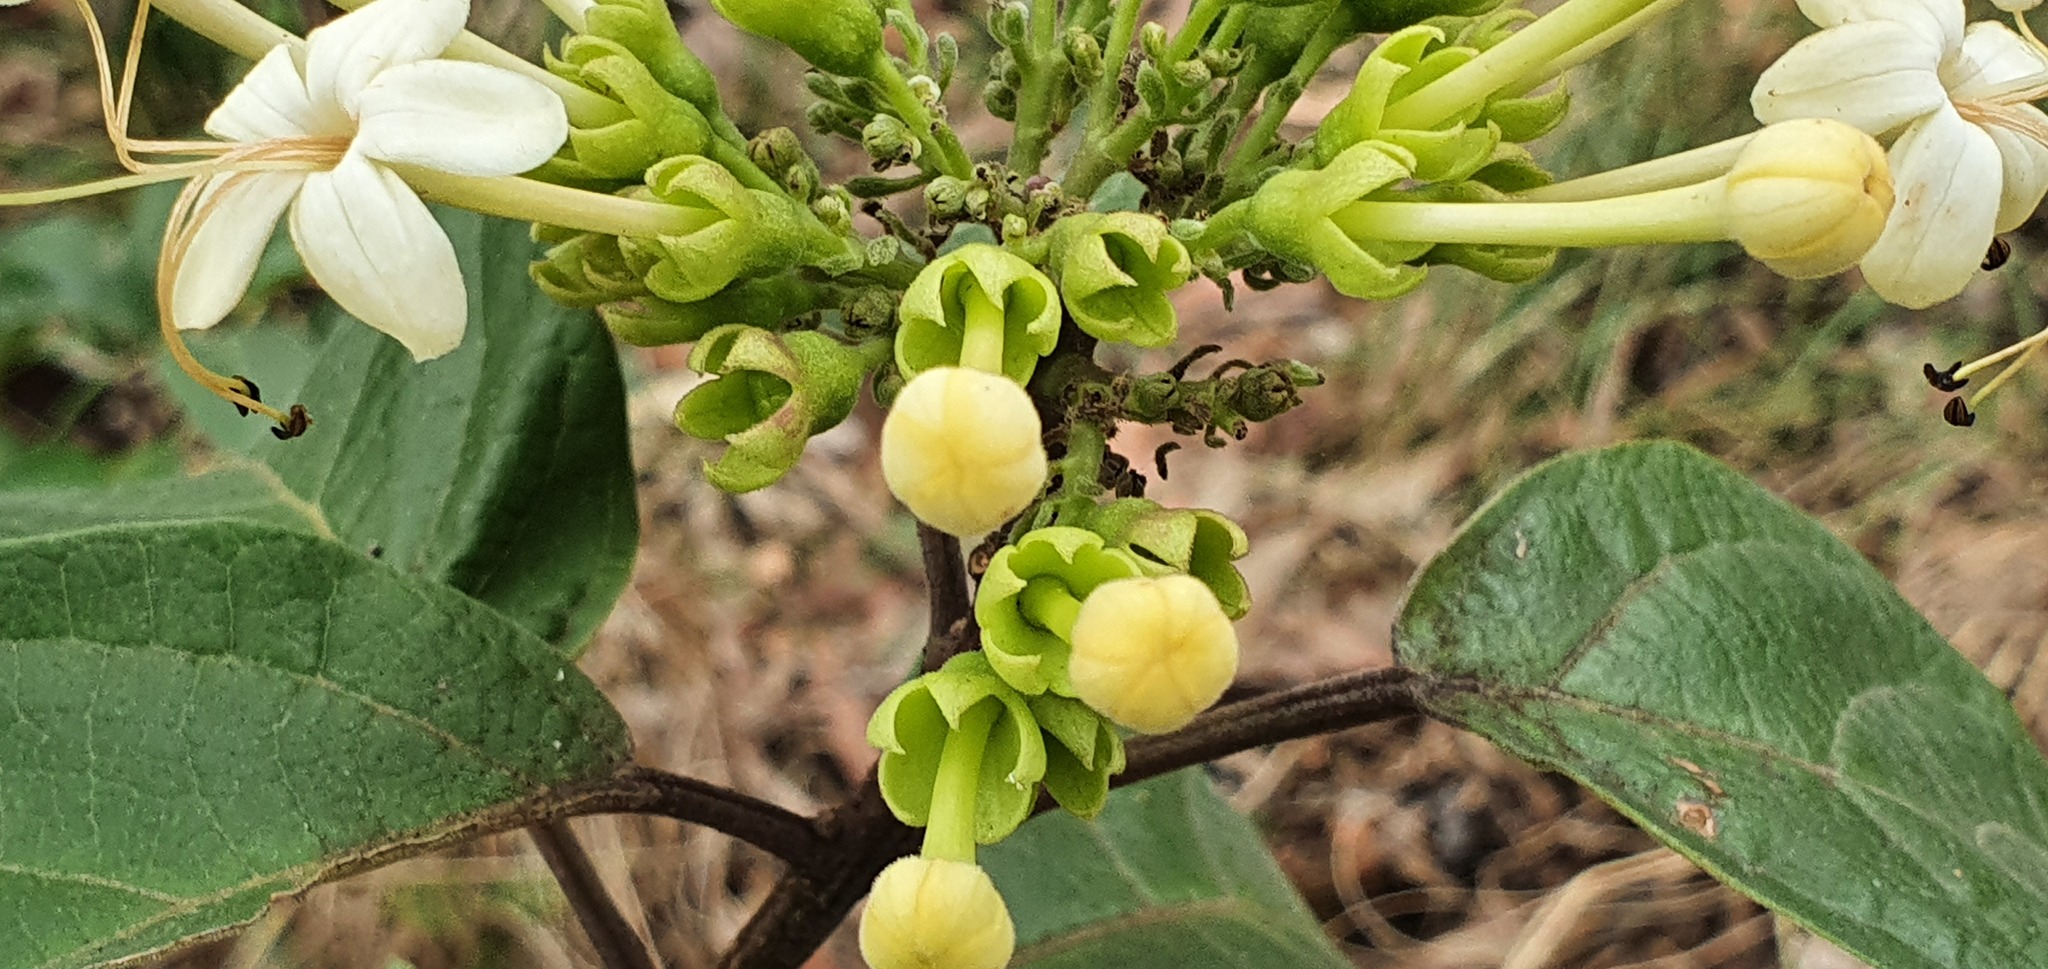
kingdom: Plantae
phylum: Tracheophyta
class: Magnoliopsida
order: Lamiales
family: Lamiaceae
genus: Clerodendrum
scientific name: Clerodendrum tomentosum
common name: Hairy clerodendrum
